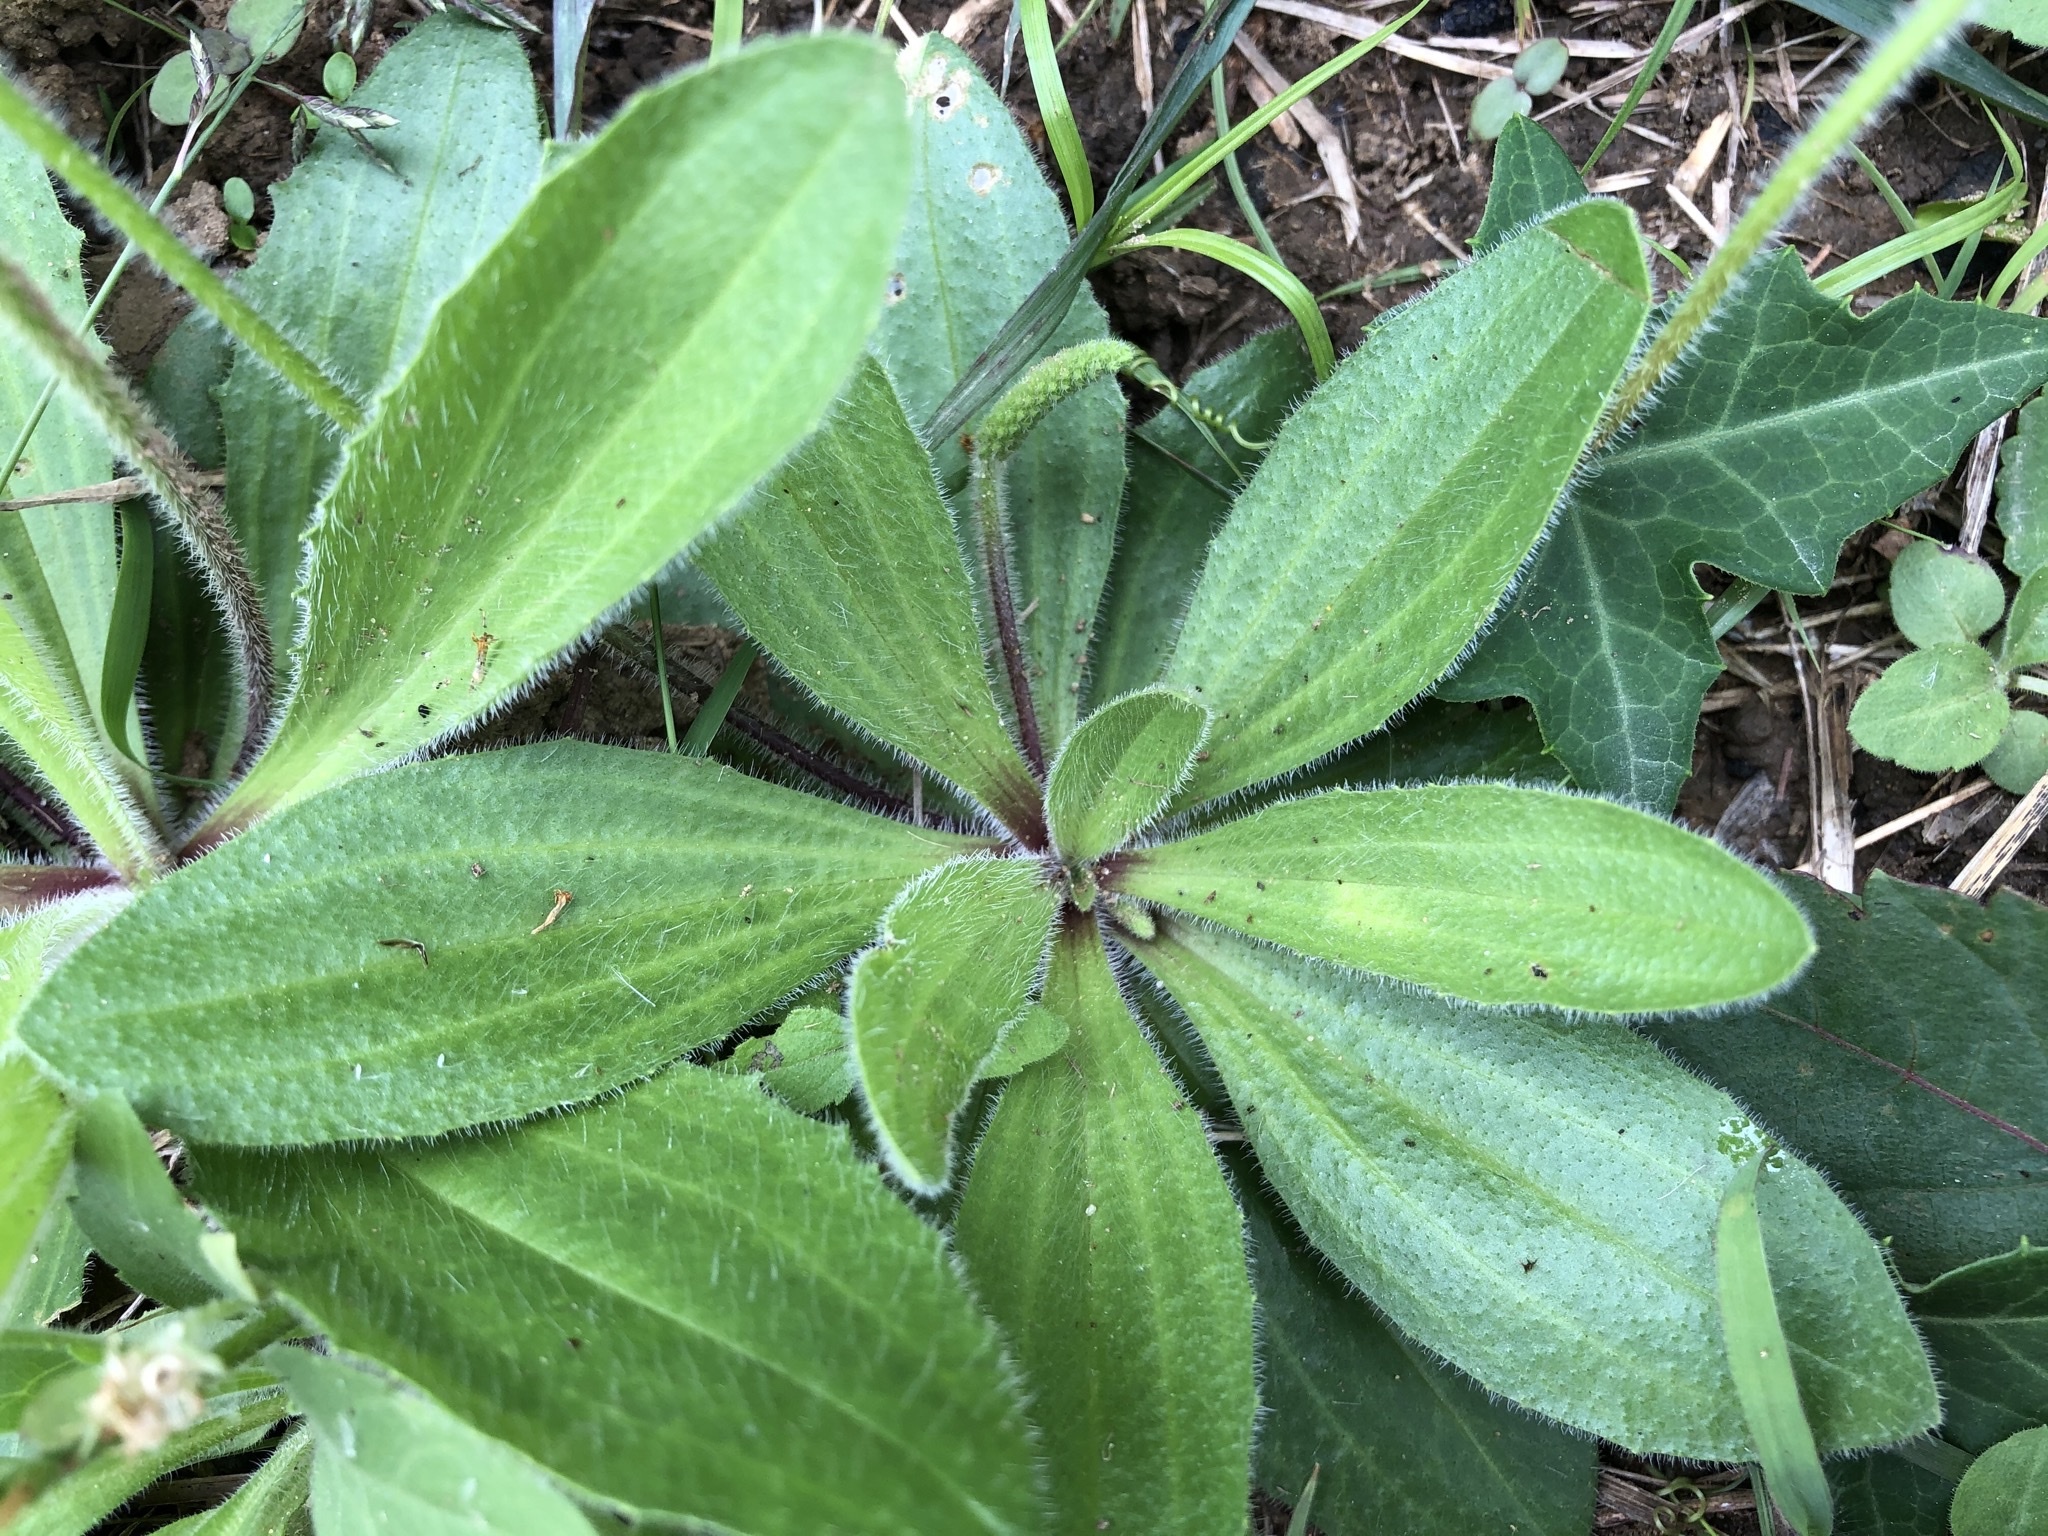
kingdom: Plantae
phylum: Tracheophyta
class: Magnoliopsida
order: Lamiales
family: Plantaginaceae
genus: Plantago
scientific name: Plantago virginica
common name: Hoary plantain
